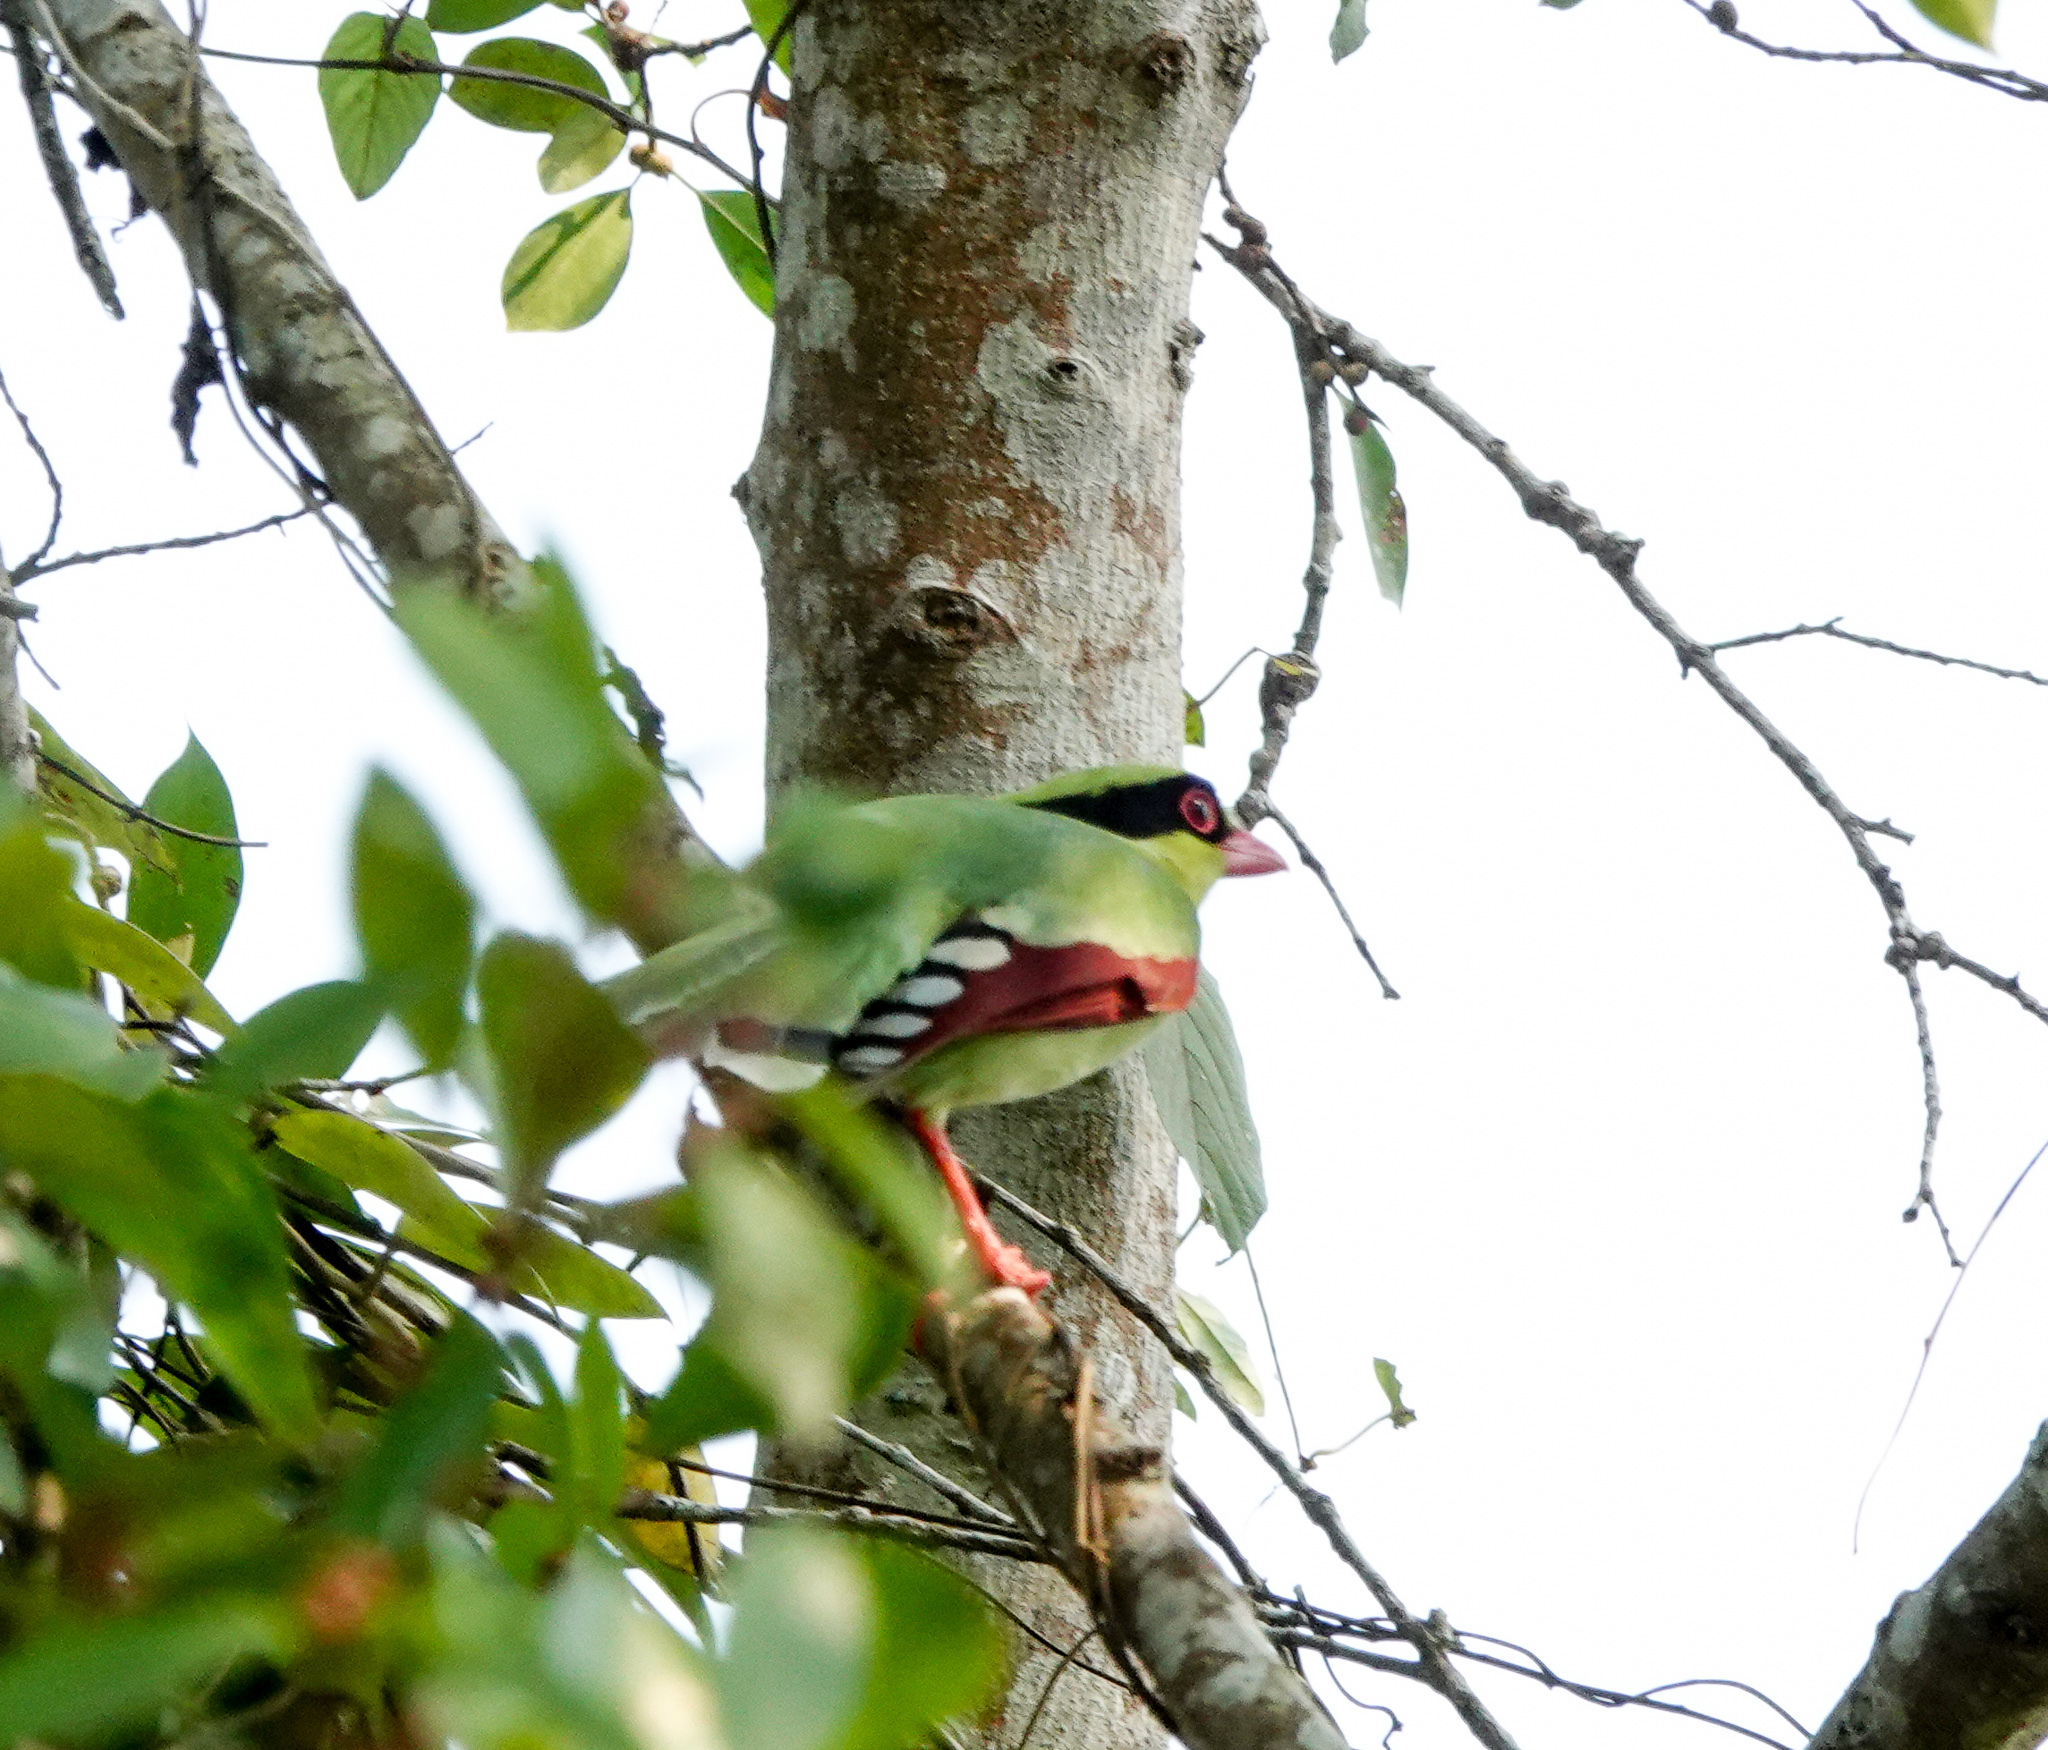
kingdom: Animalia
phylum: Chordata
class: Aves
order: Passeriformes
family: Corvidae
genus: Cissa
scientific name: Cissa chinensis
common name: Common green magpie
